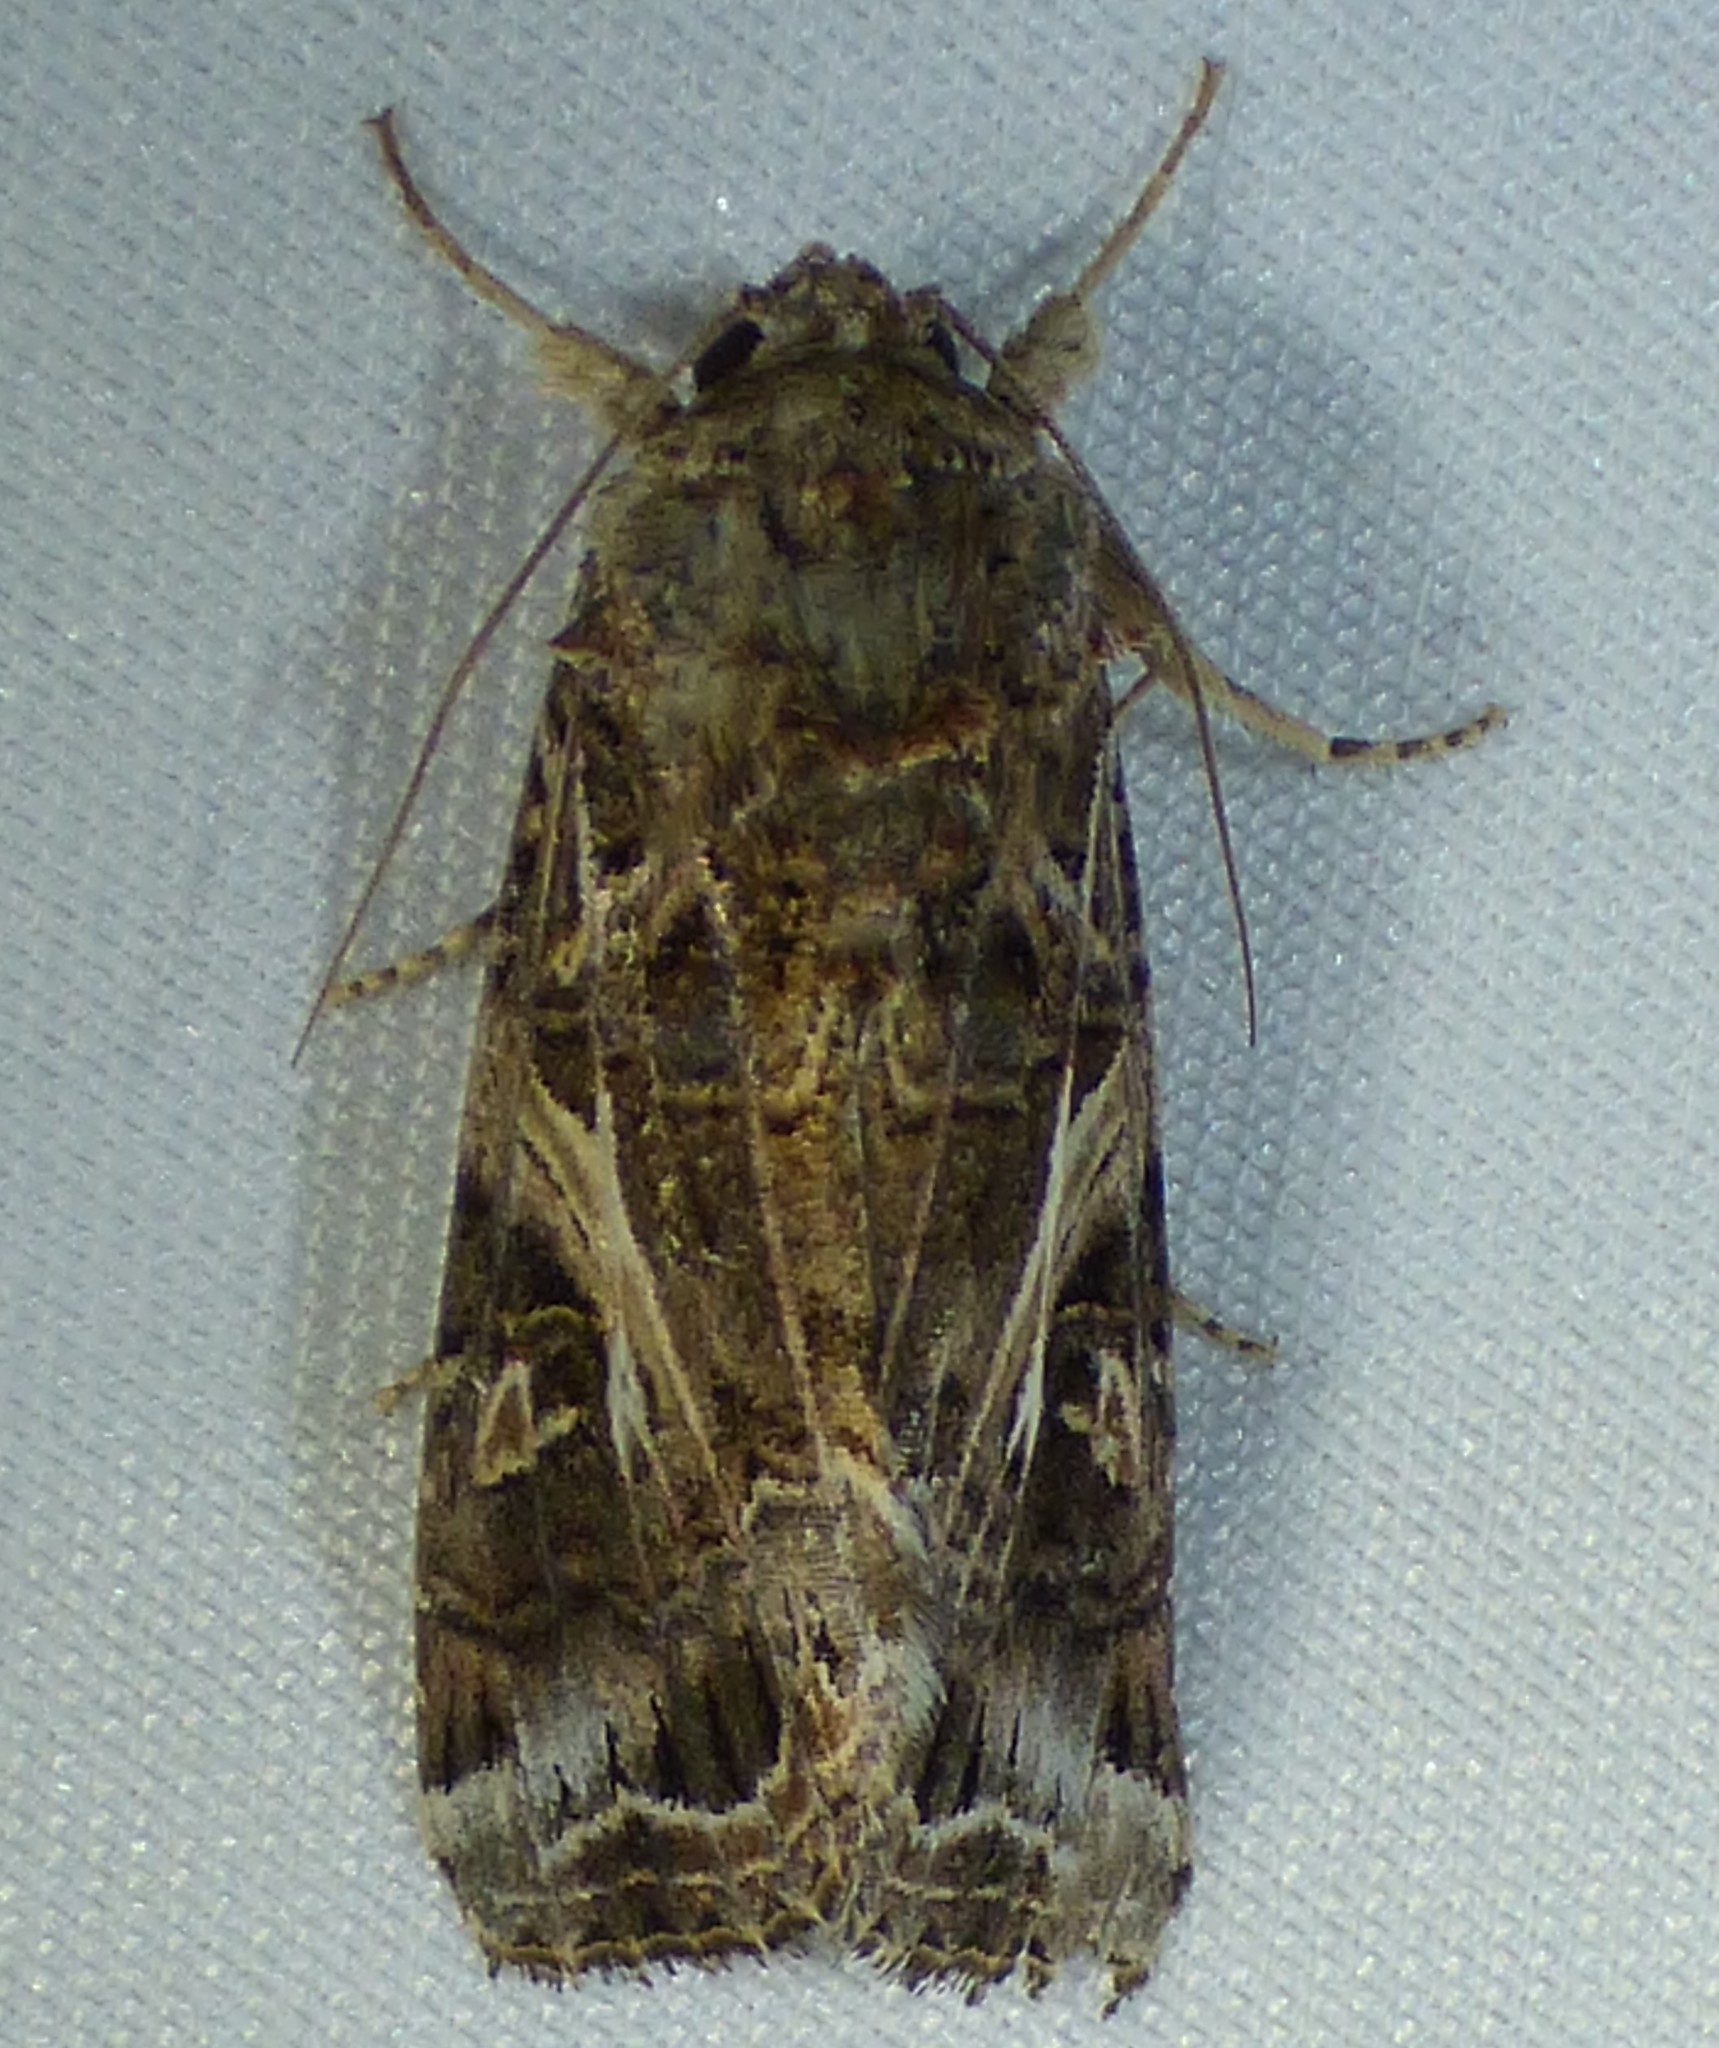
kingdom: Animalia
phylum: Arthropoda
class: Insecta
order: Lepidoptera
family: Noctuidae
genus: Spodoptera
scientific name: Spodoptera ornithogalli
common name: Yellow-striped armyworm
